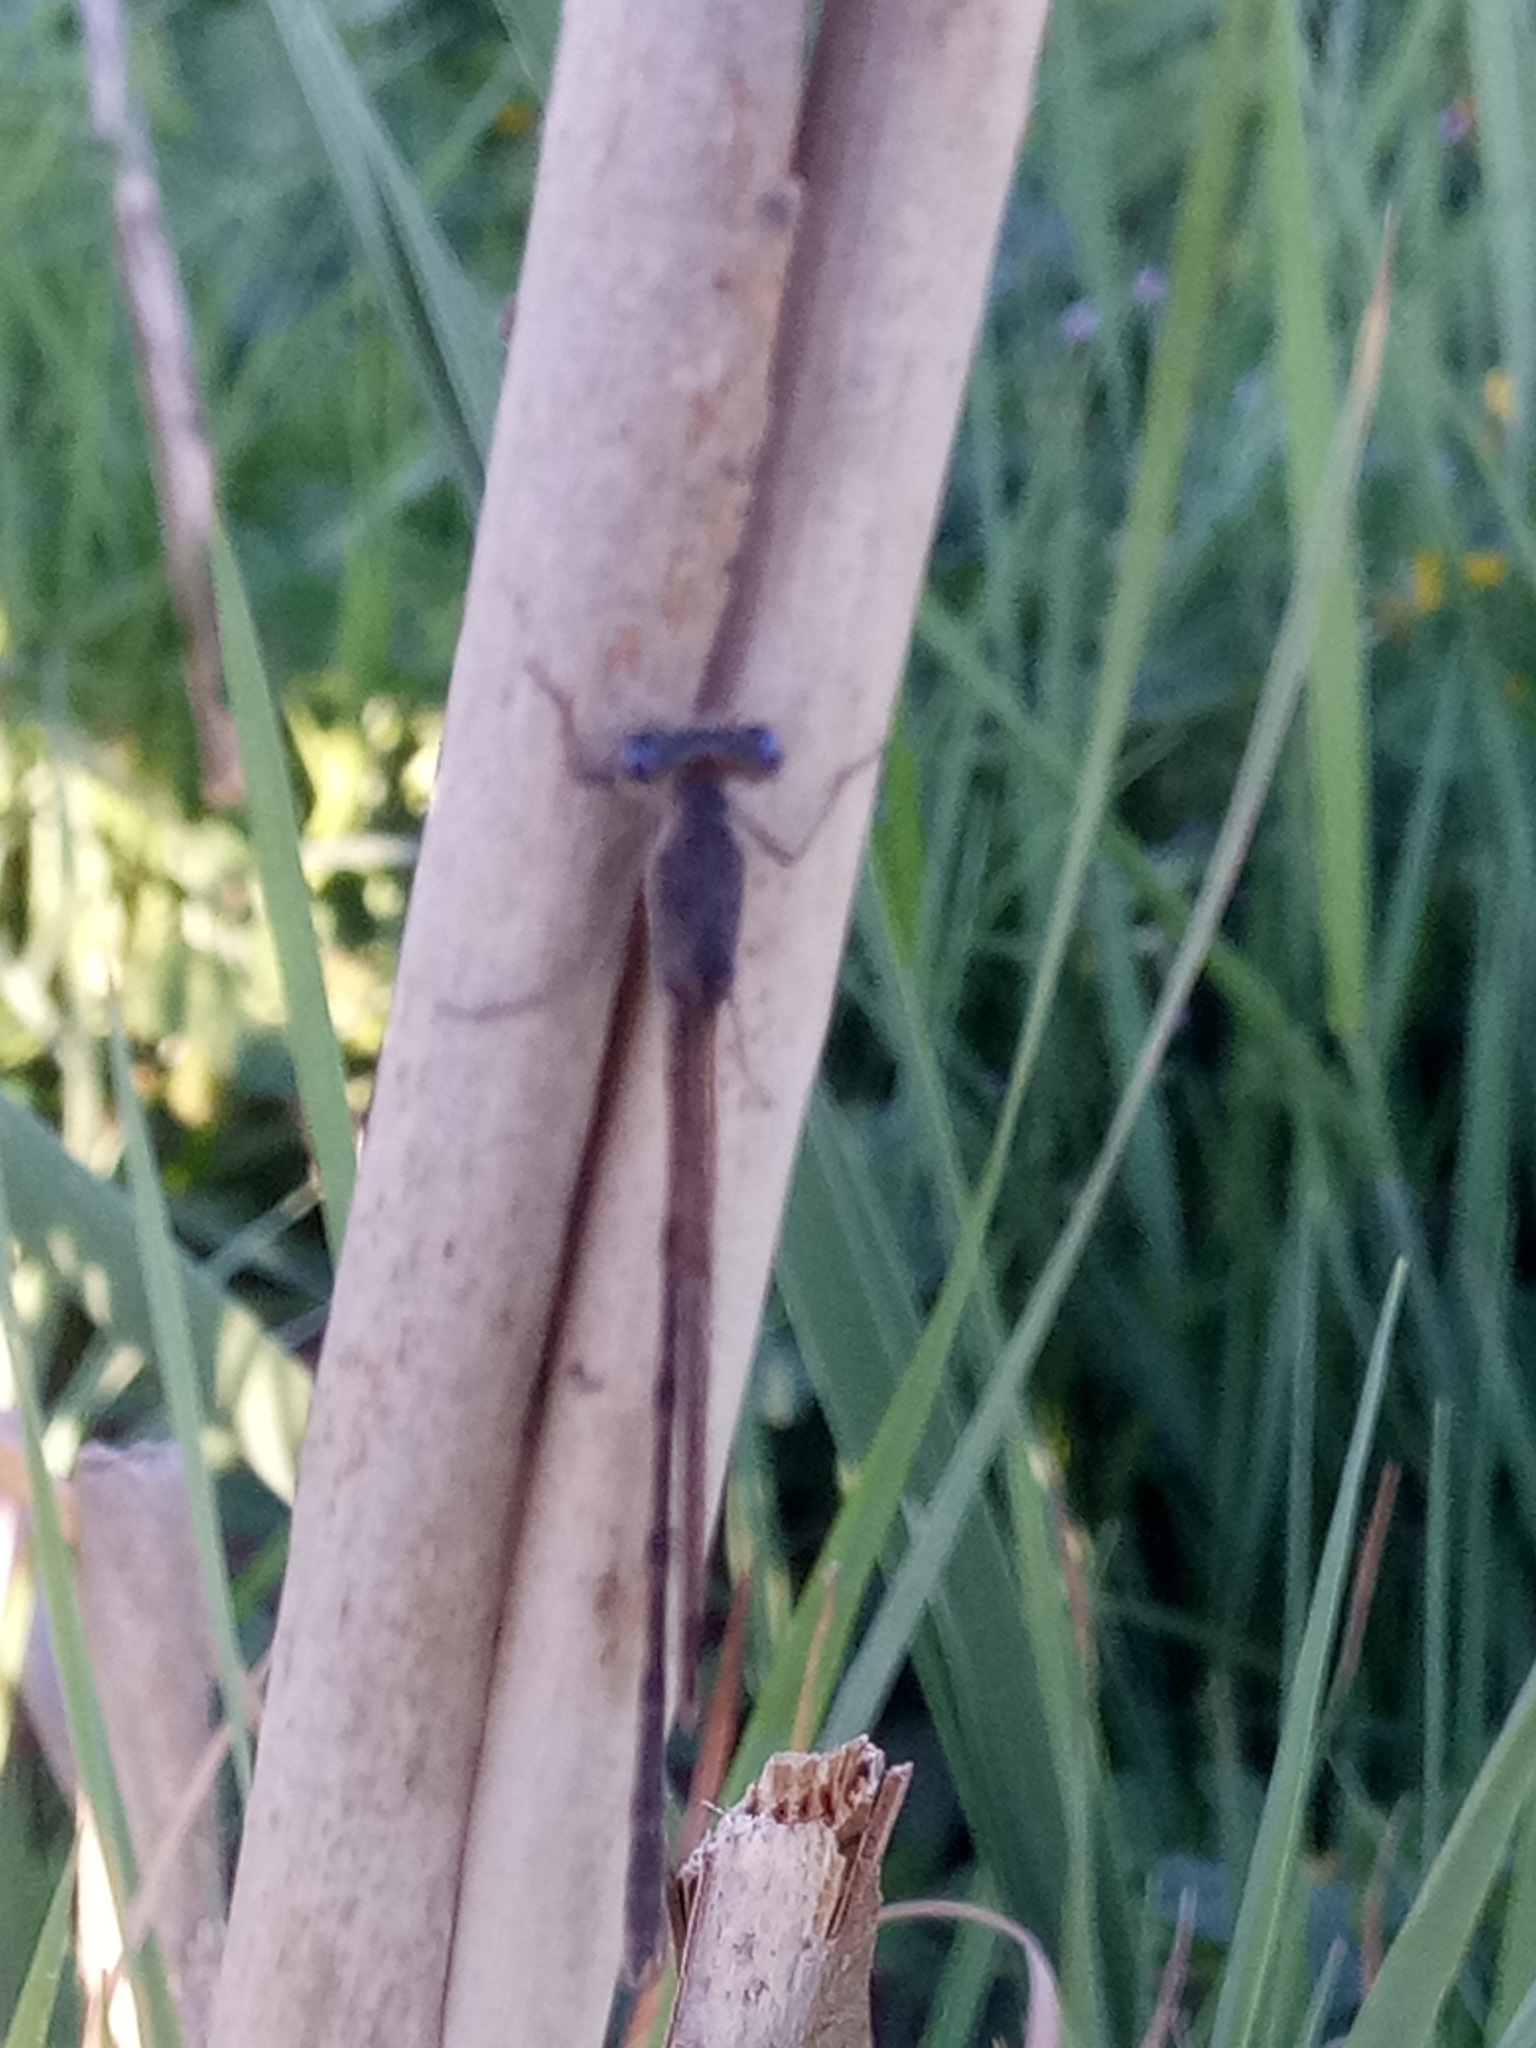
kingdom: Animalia
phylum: Arthropoda
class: Insecta
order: Odonata
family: Lestidae
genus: Sympecma
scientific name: Sympecma fusca
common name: Common winter damsel
